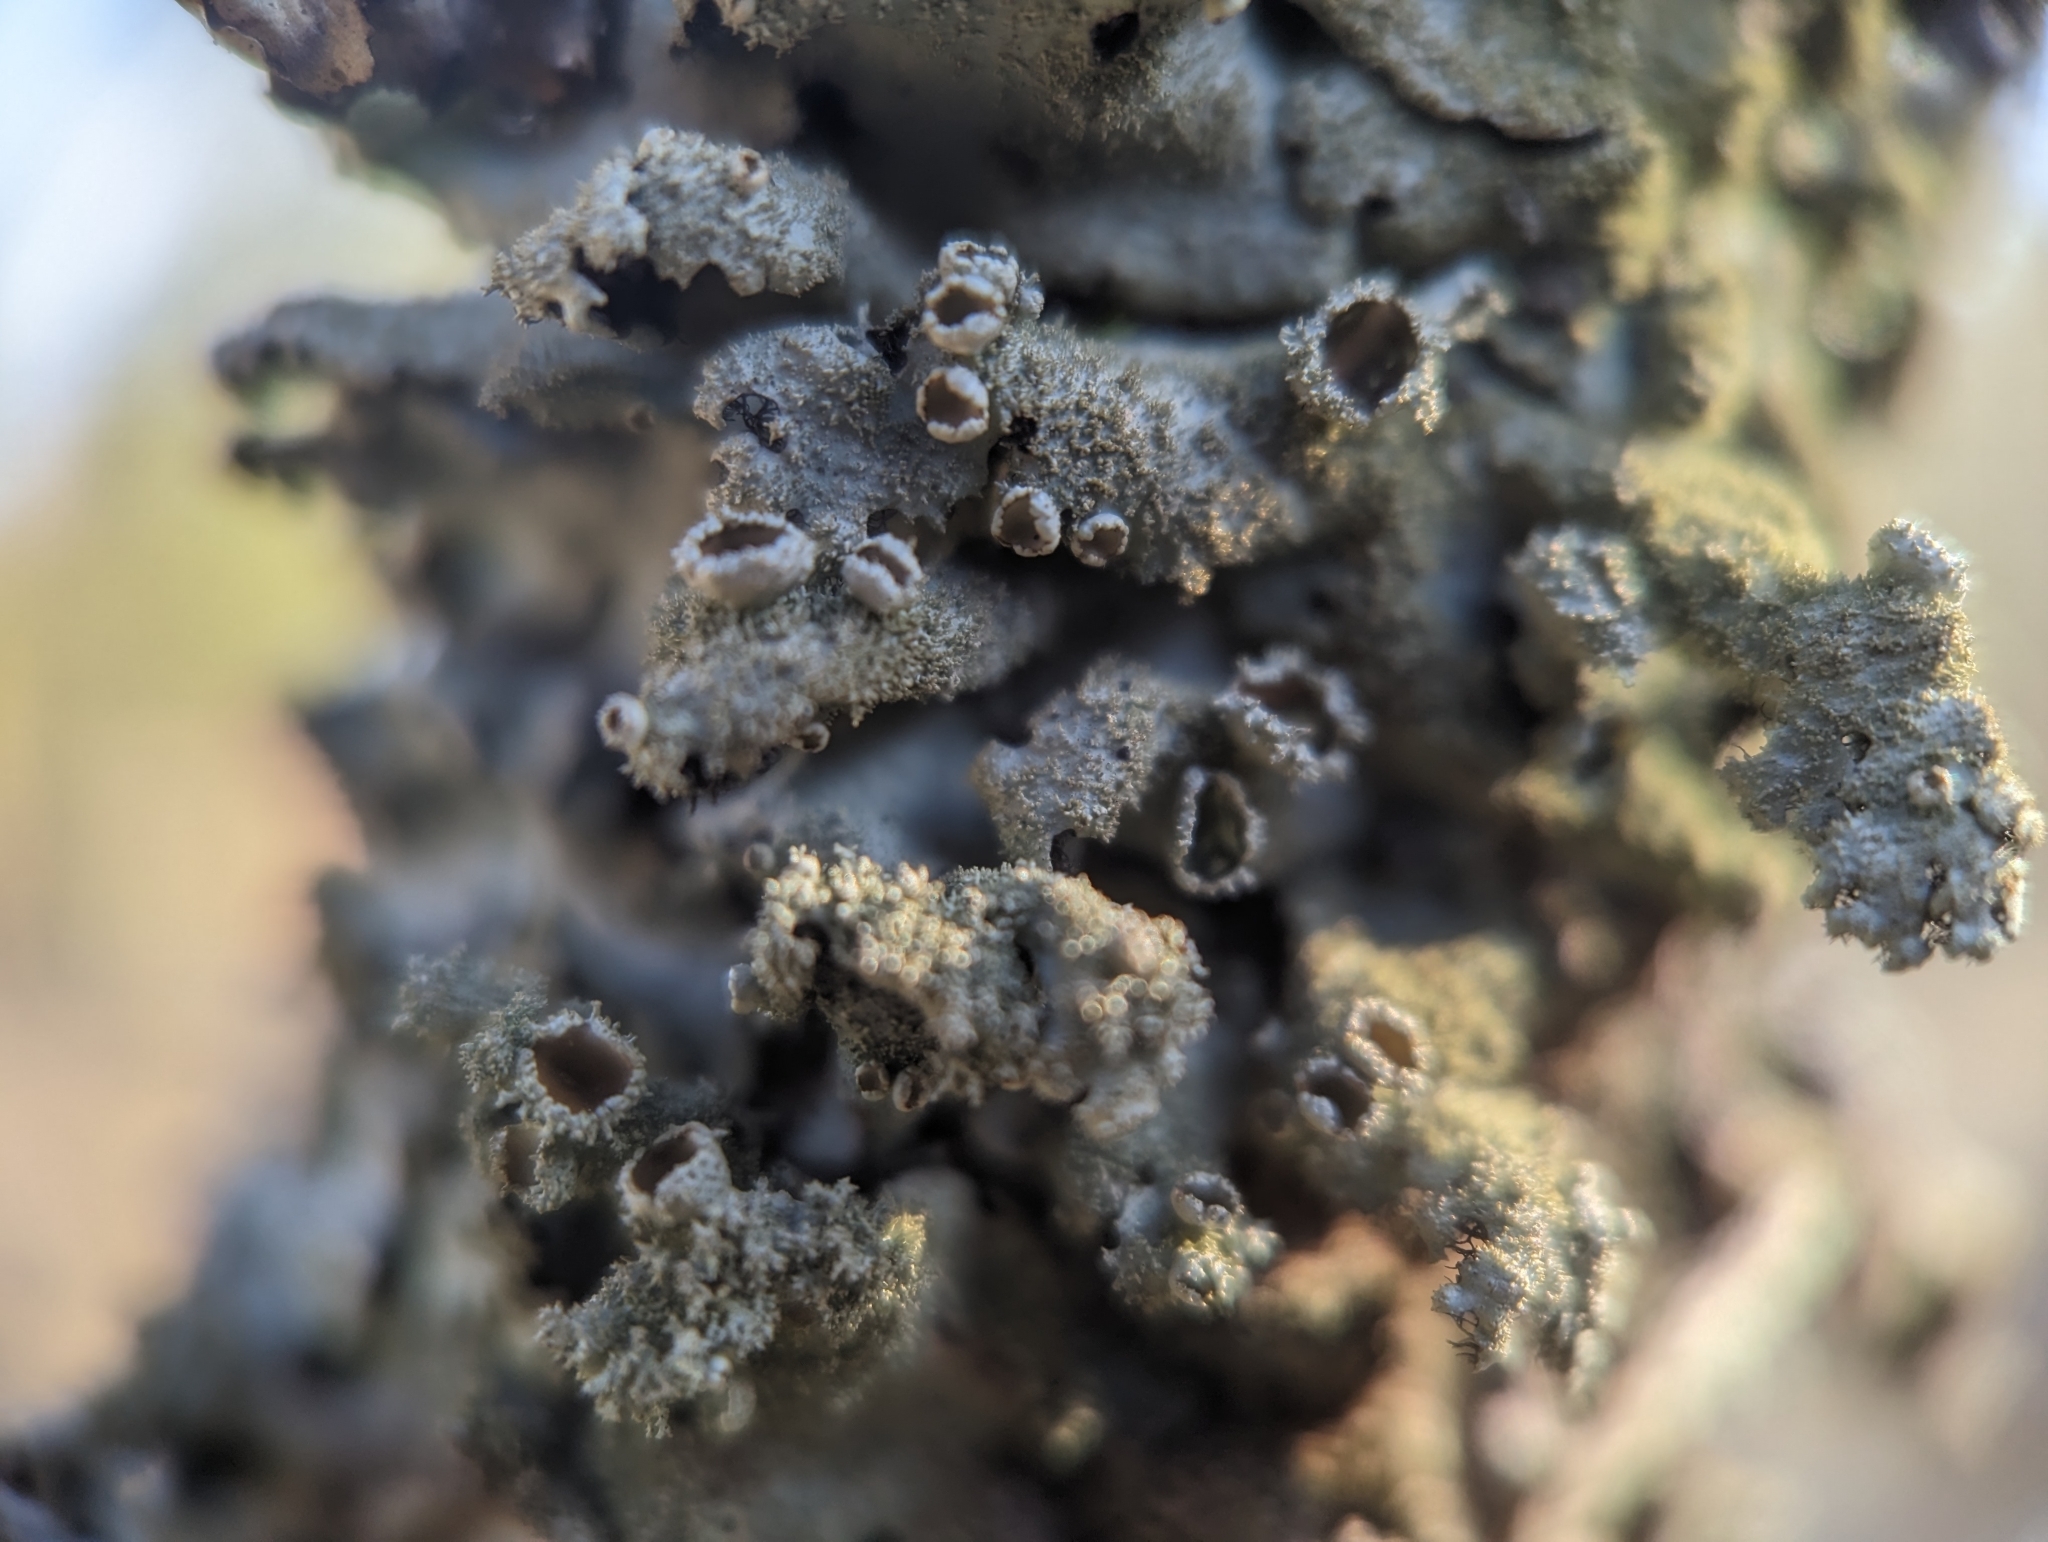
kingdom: Fungi
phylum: Ascomycota
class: Lecanoromycetes
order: Lecanorales
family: Parmeliaceae
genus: Hypotrachyna
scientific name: Hypotrachyna minarum
